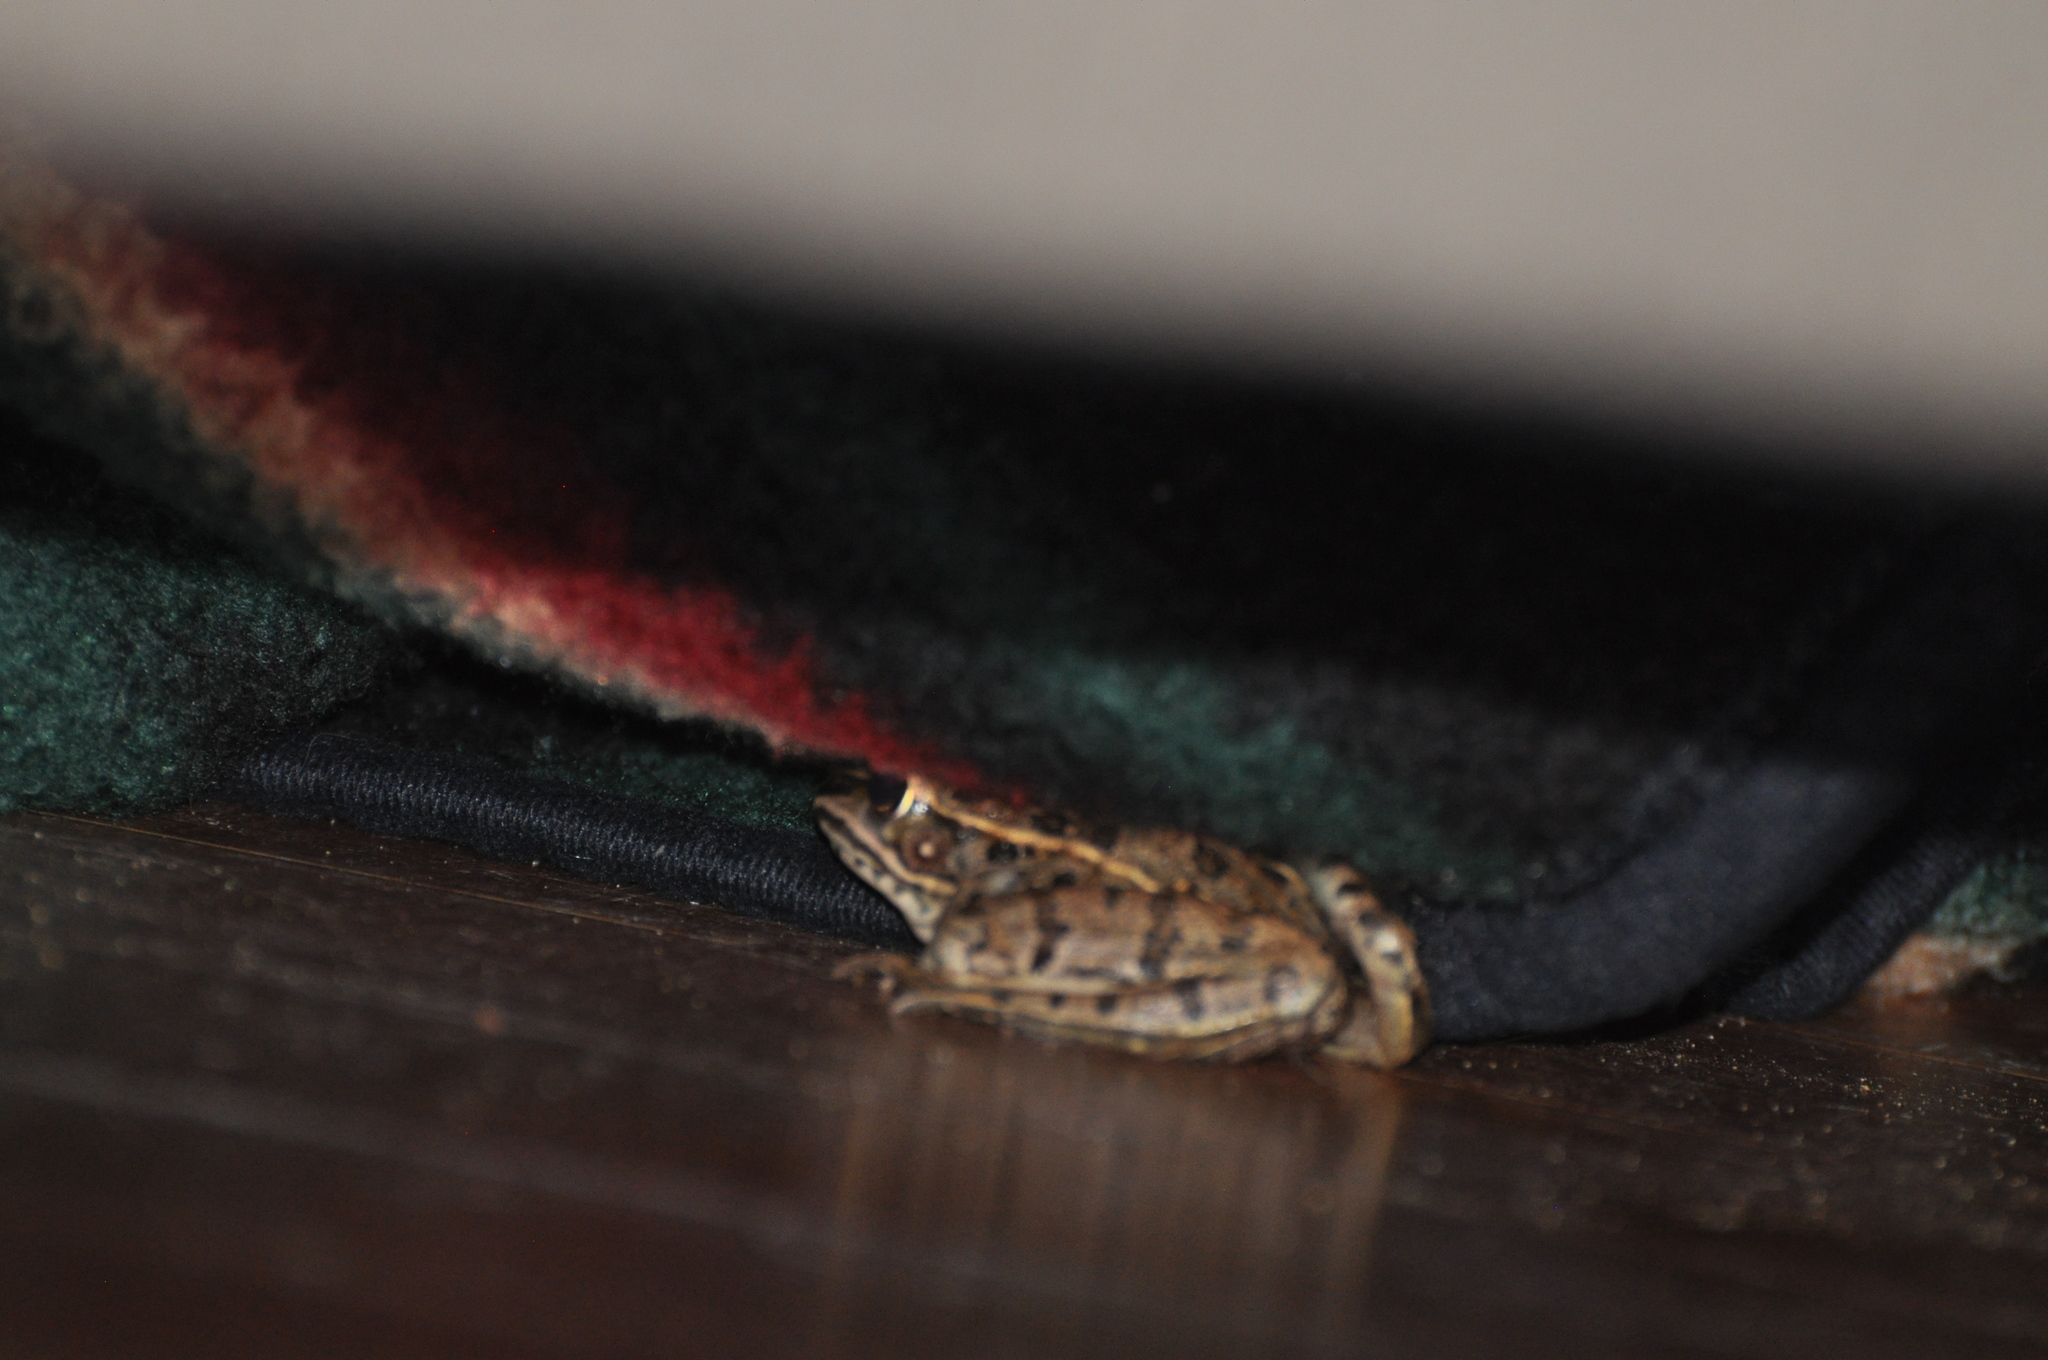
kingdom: Animalia
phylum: Chordata
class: Amphibia
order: Anura
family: Ranidae
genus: Lithobates
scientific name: Lithobates blairi
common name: Plains leopard frog
